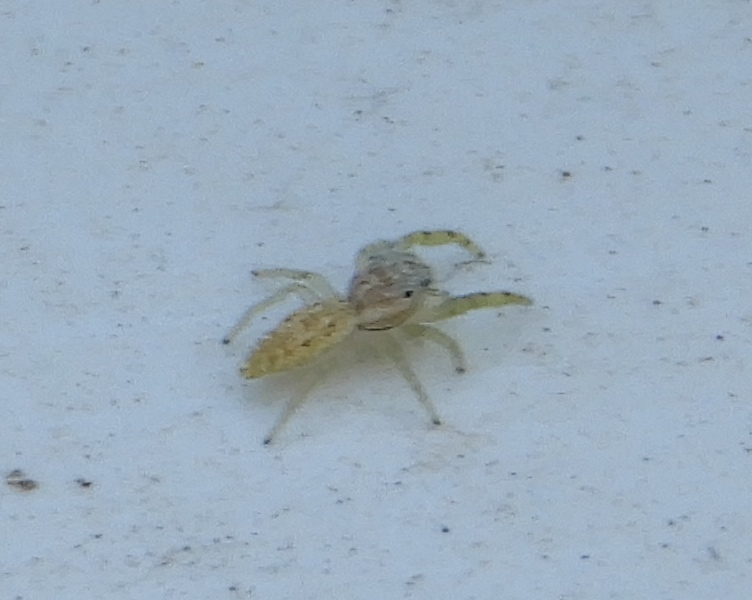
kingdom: Animalia
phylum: Arthropoda
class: Arachnida
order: Araneae
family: Salticidae
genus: Hentzia
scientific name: Hentzia
